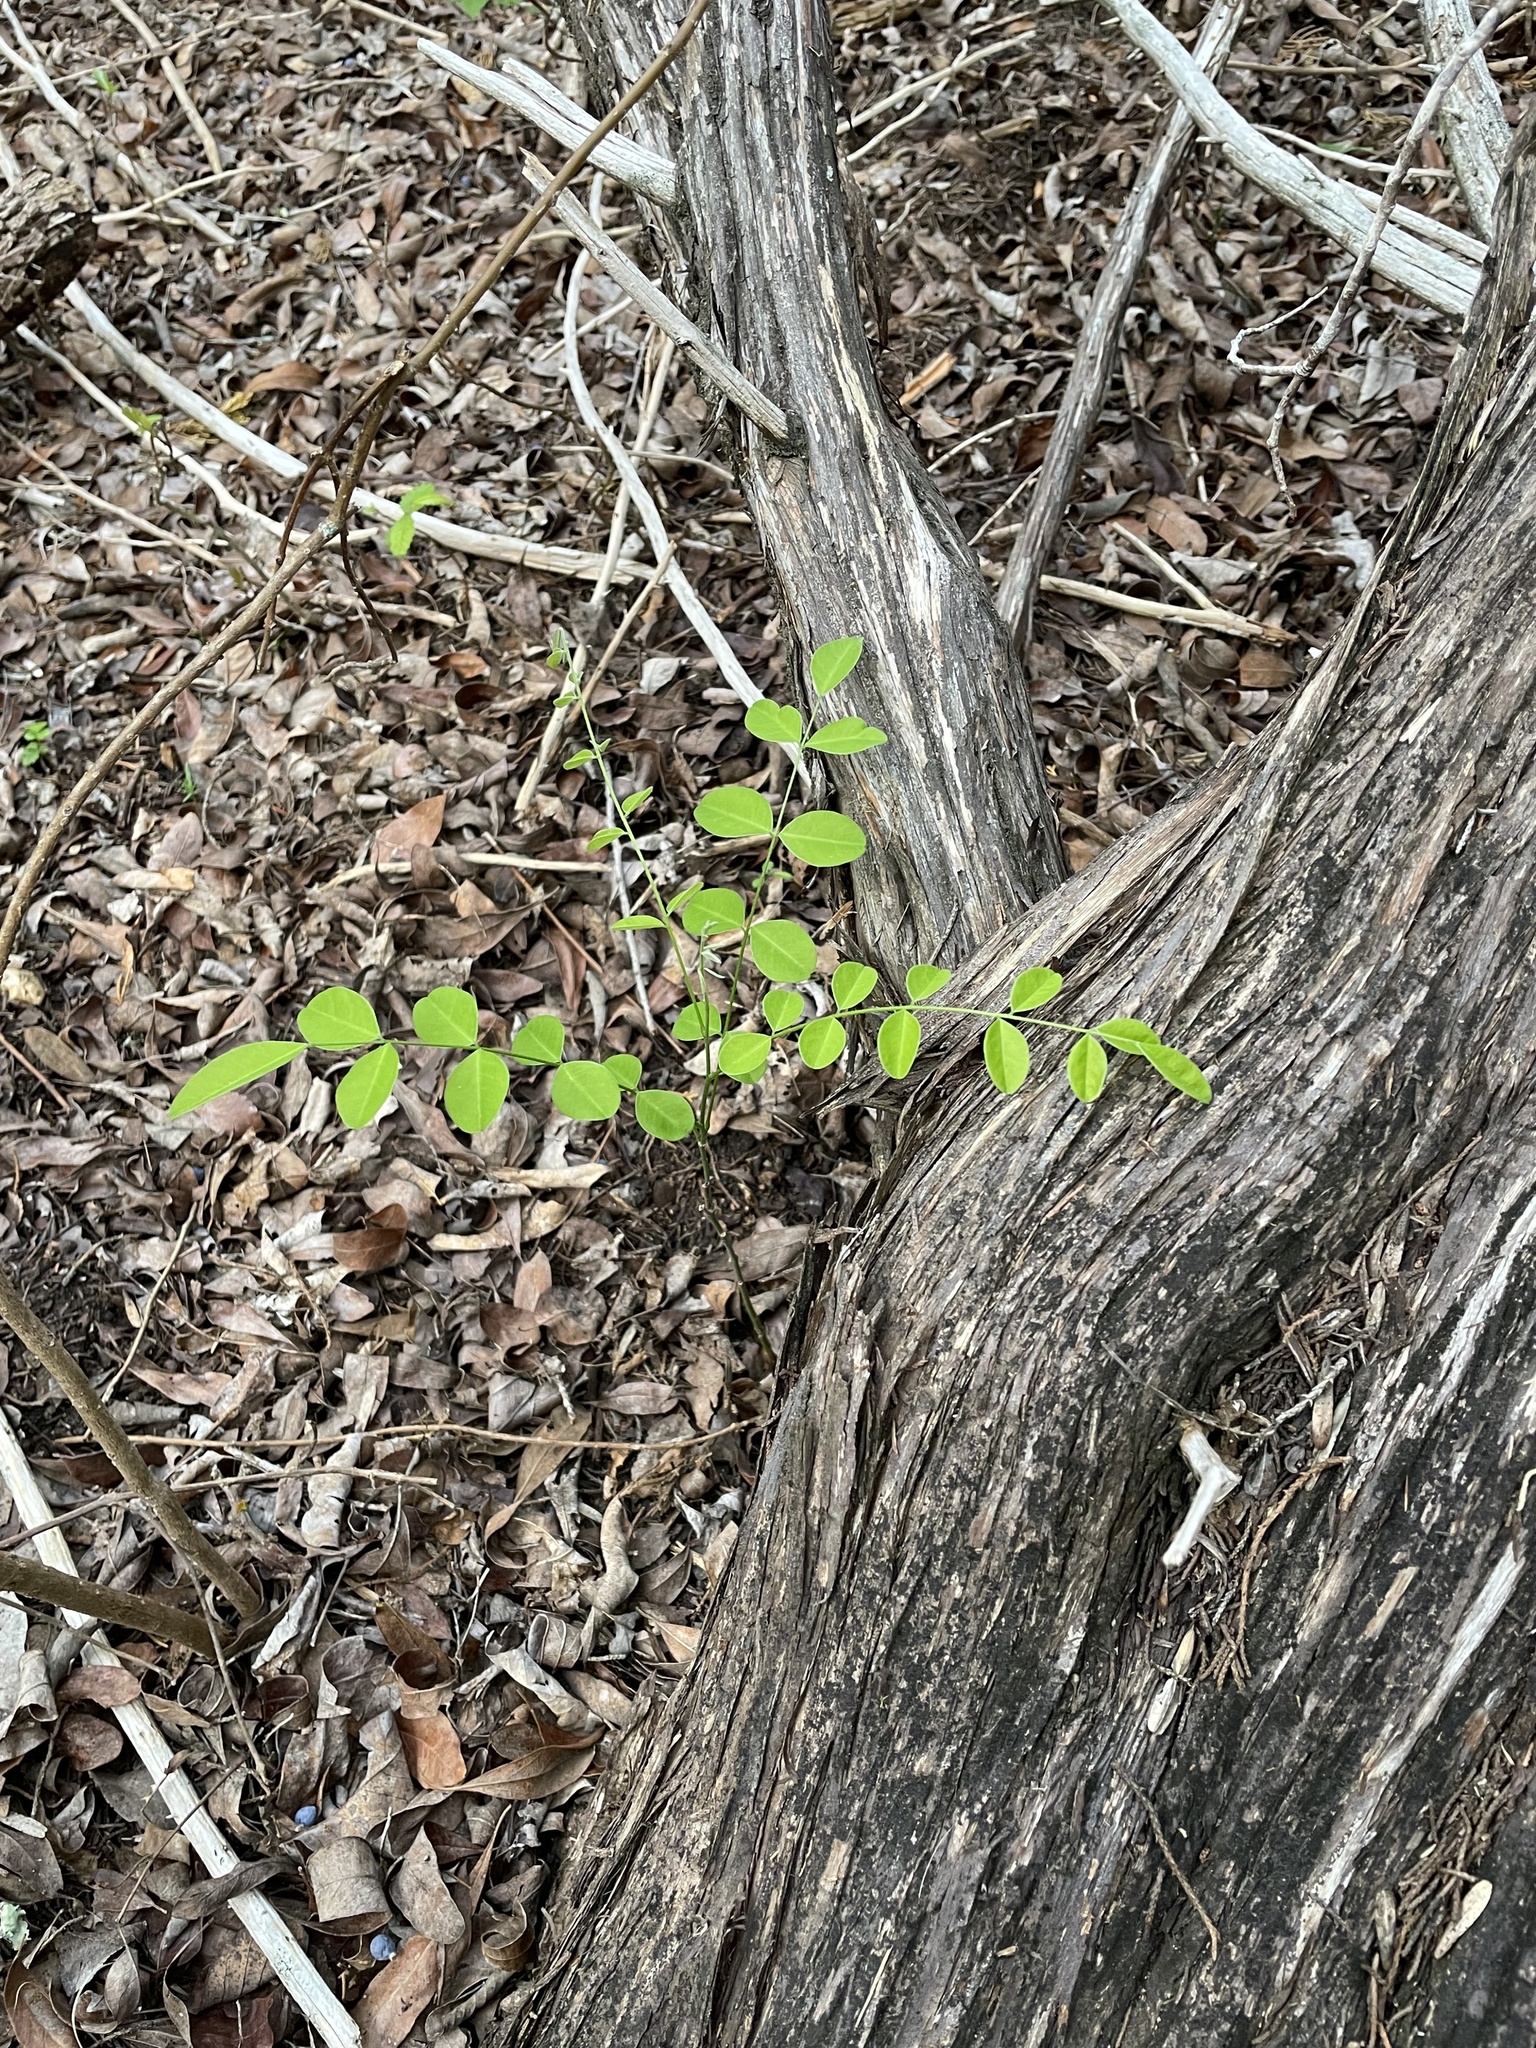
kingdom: Plantae
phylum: Tracheophyta
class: Magnoliopsida
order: Fabales
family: Fabaceae
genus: Styphnolobium
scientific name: Styphnolobium affine
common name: Texas sophora
